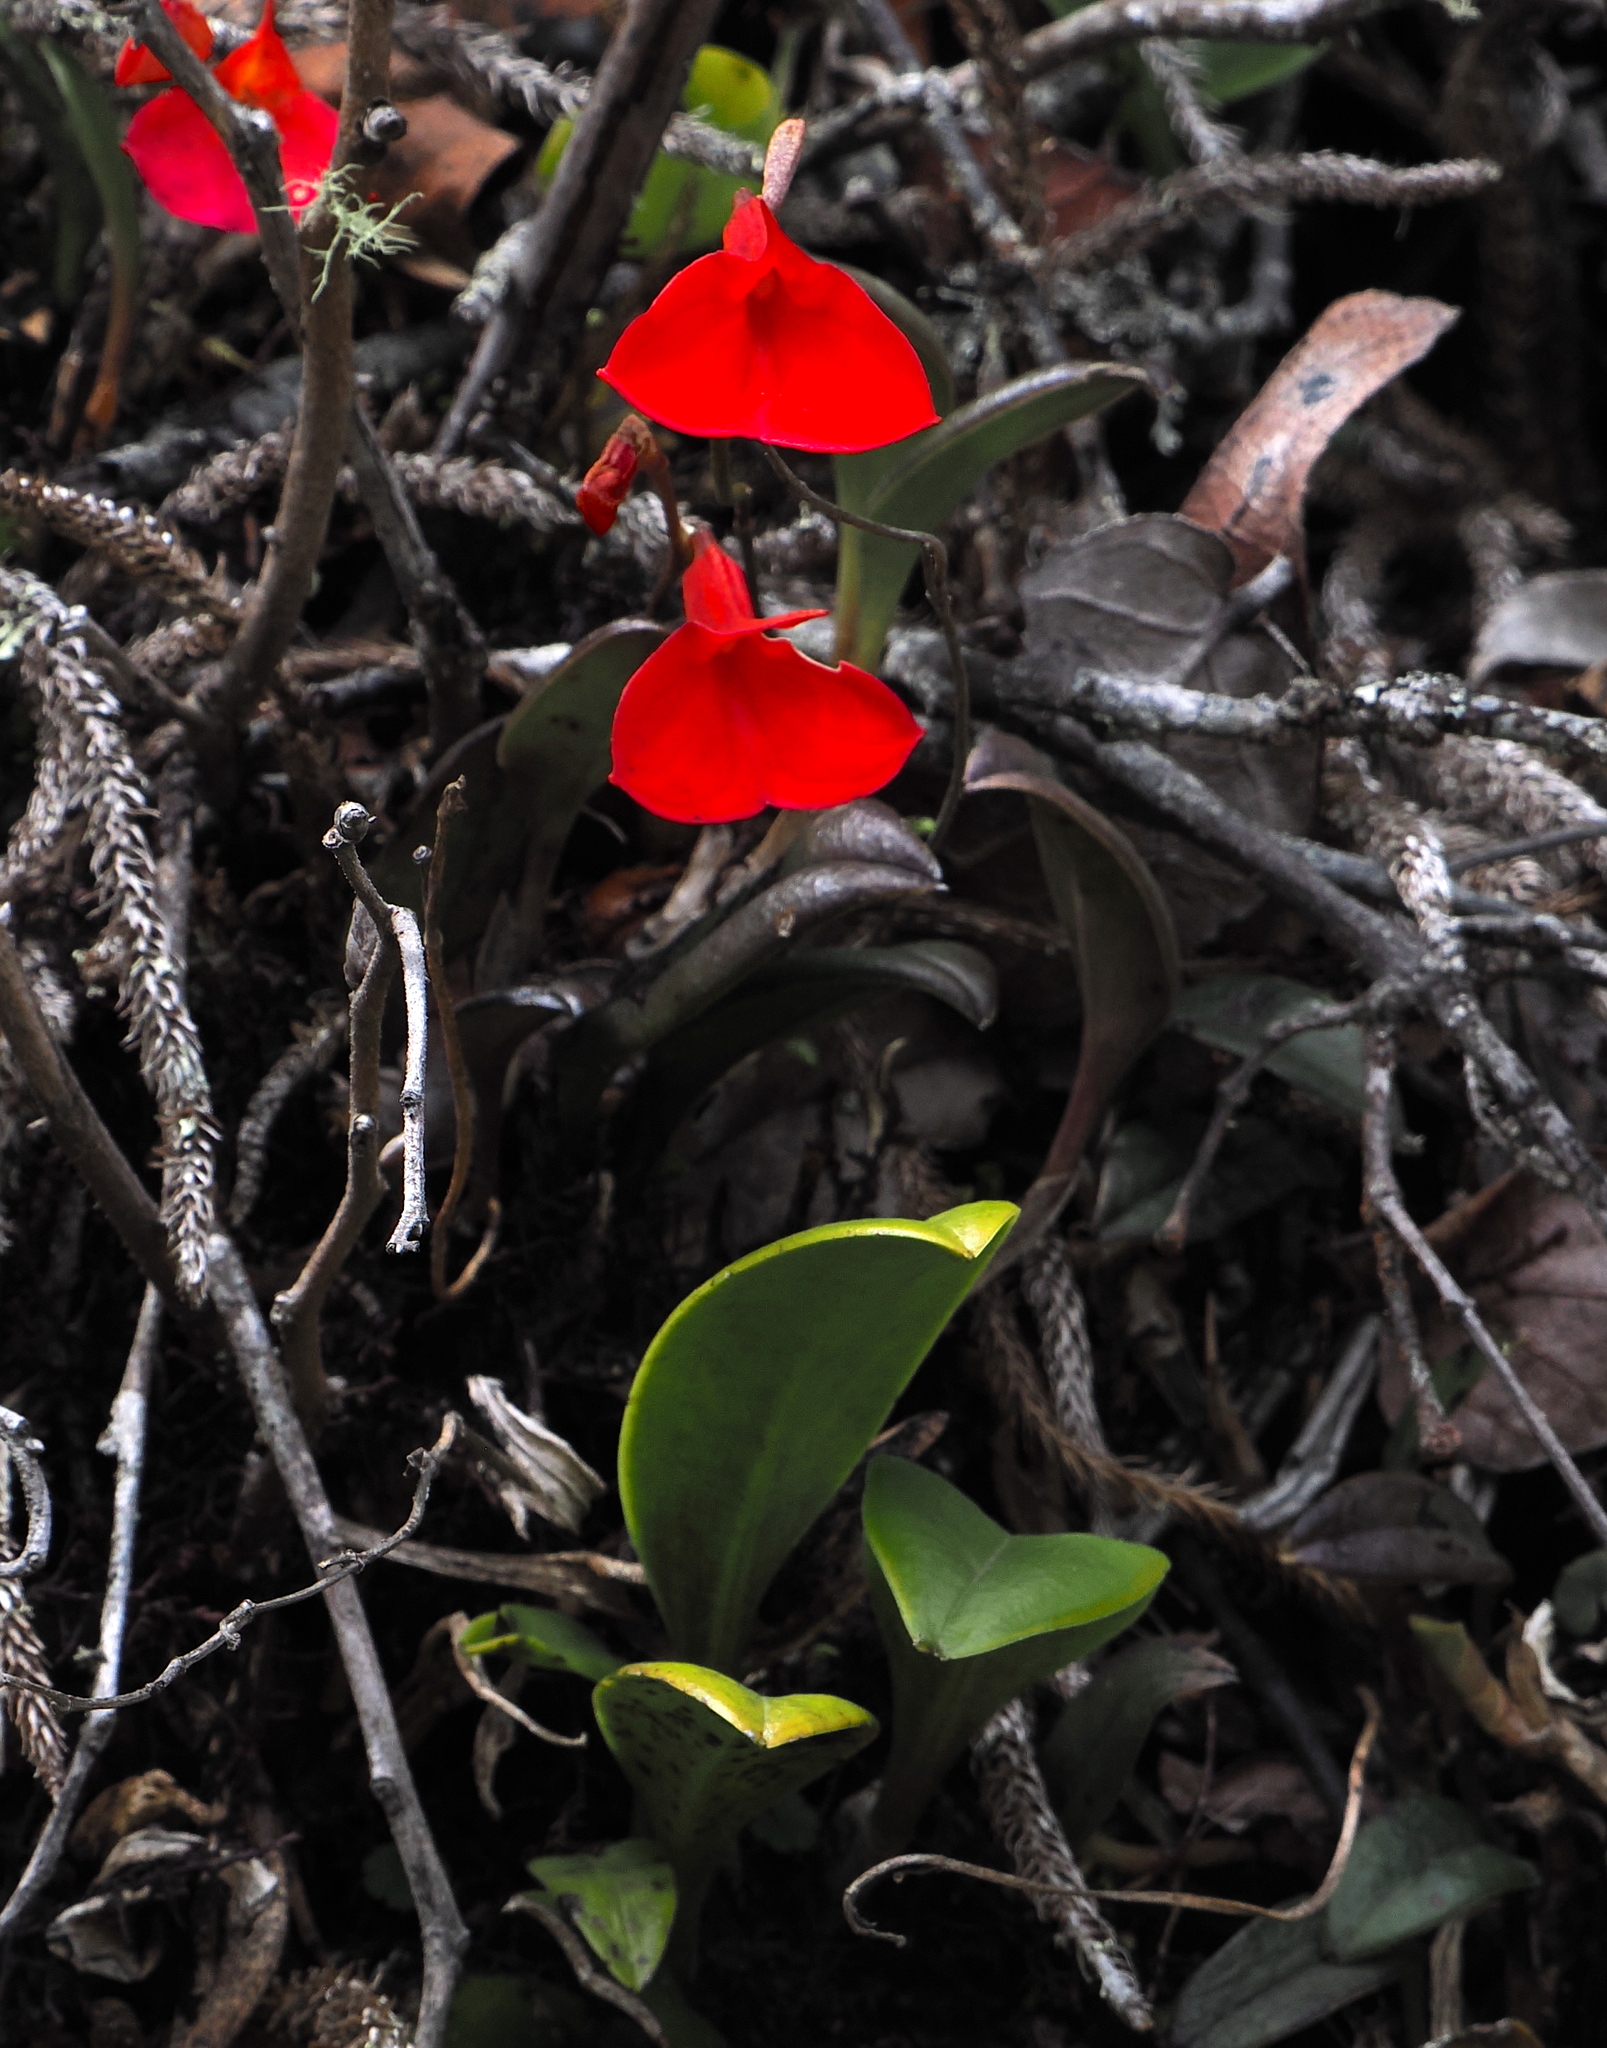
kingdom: Plantae
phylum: Tracheophyta
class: Liliopsida
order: Asparagales
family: Orchidaceae
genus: Masdevallia
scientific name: Masdevallia racemosa
